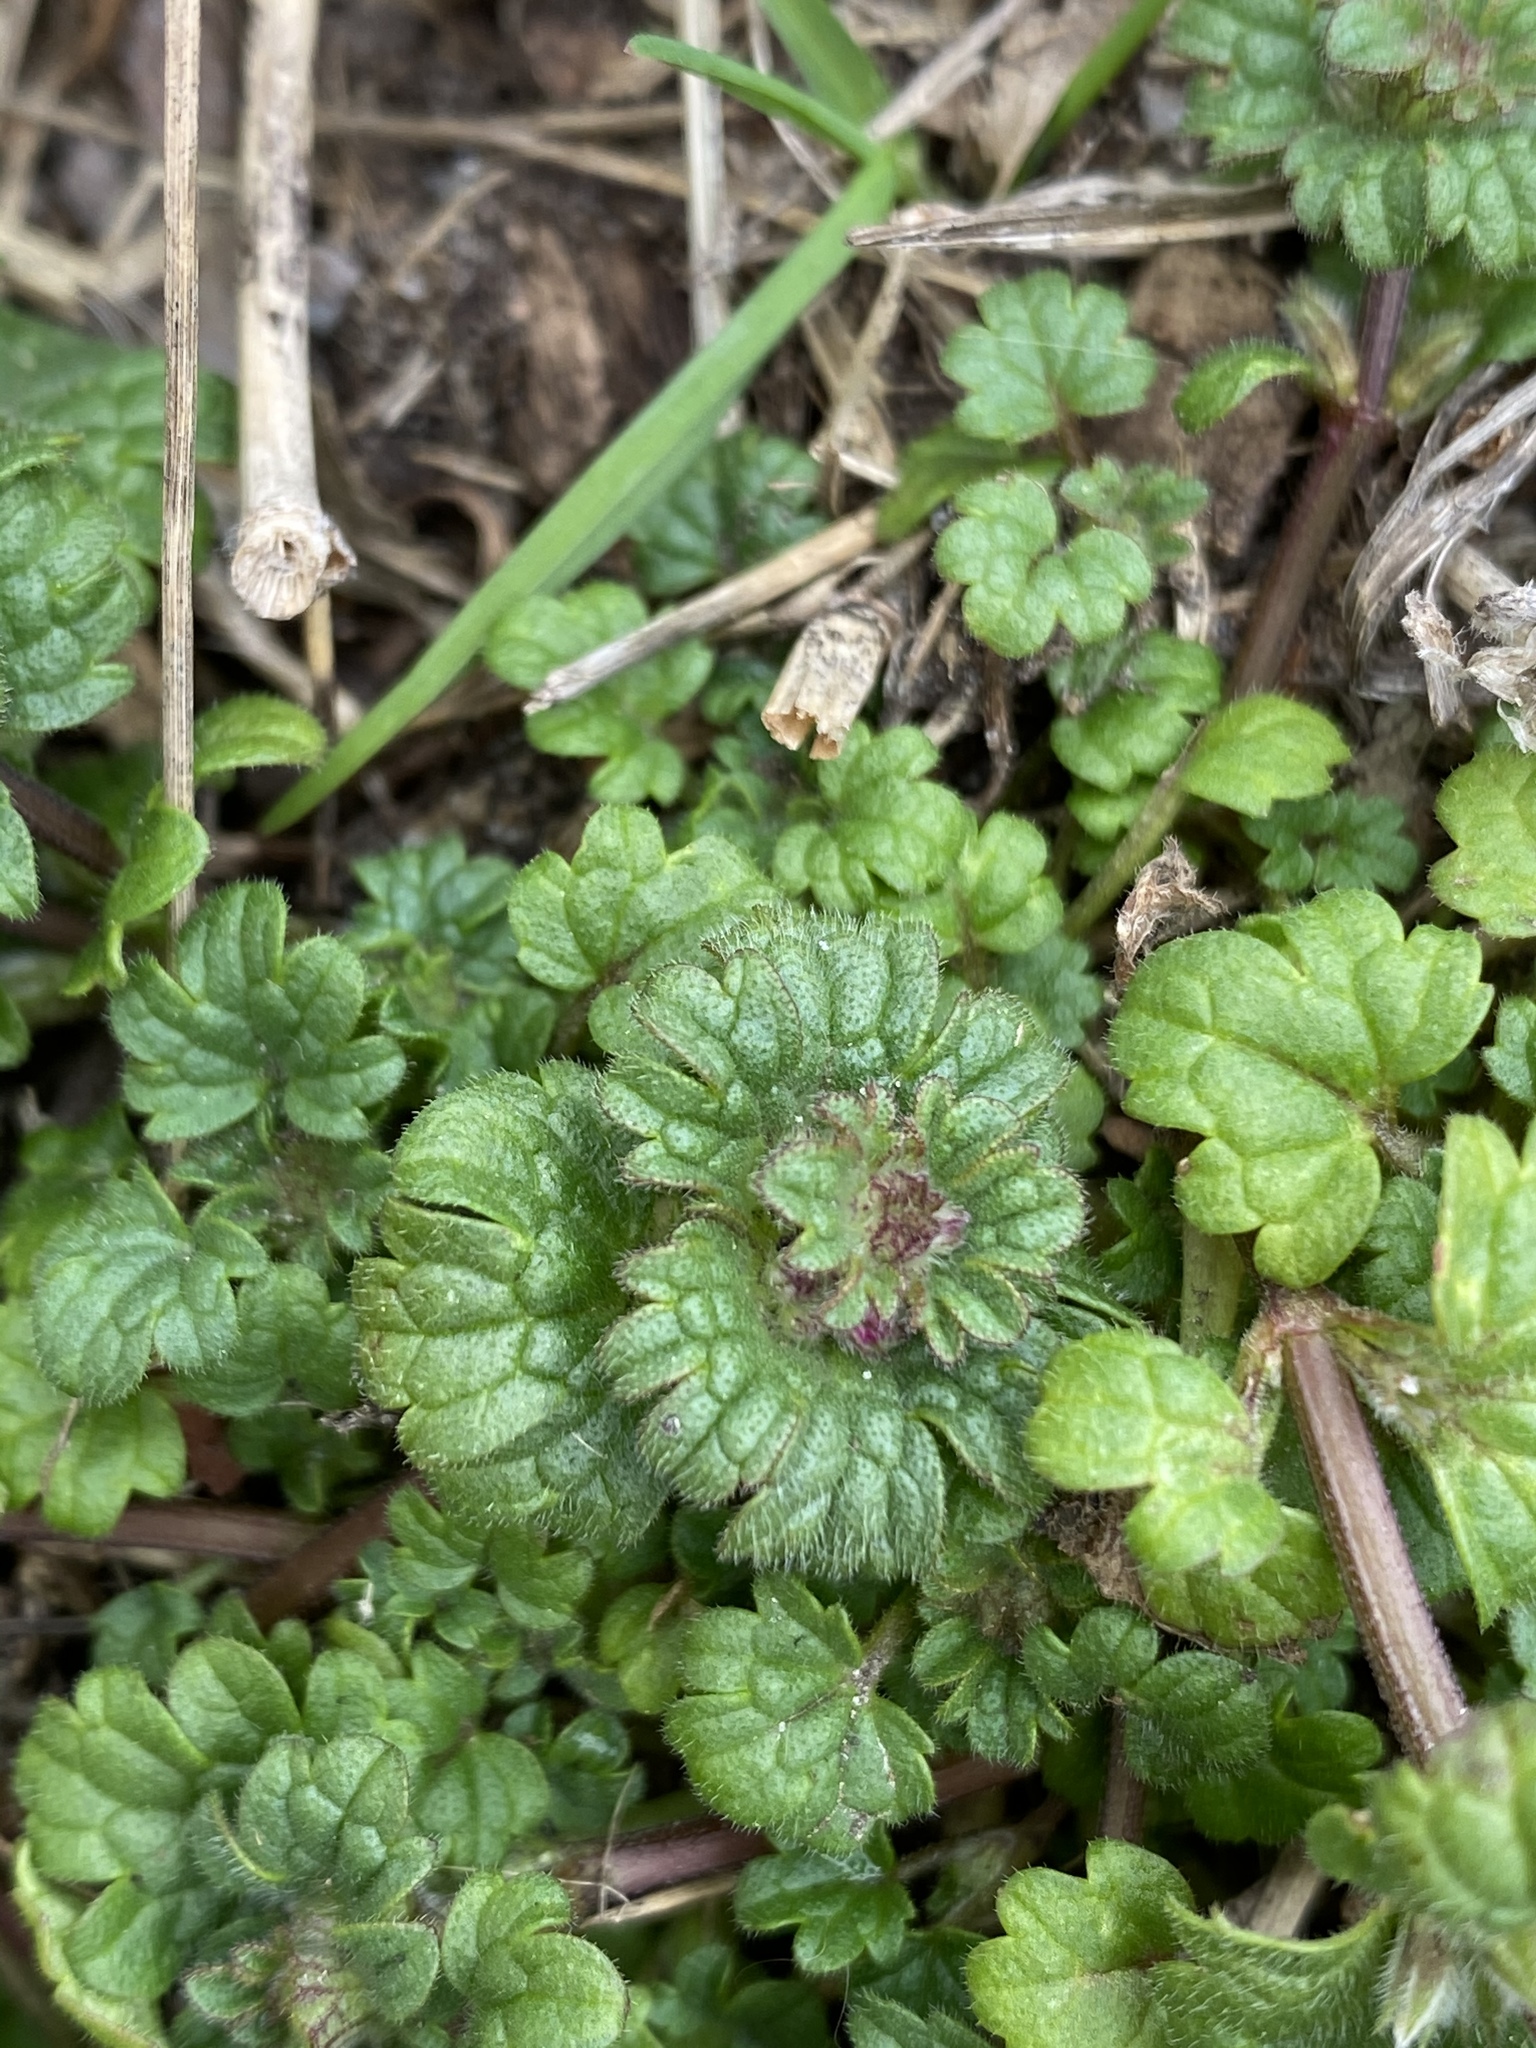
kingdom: Plantae
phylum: Tracheophyta
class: Magnoliopsida
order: Lamiales
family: Lamiaceae
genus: Lamium
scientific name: Lamium amplexicaule
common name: Henbit dead-nettle
